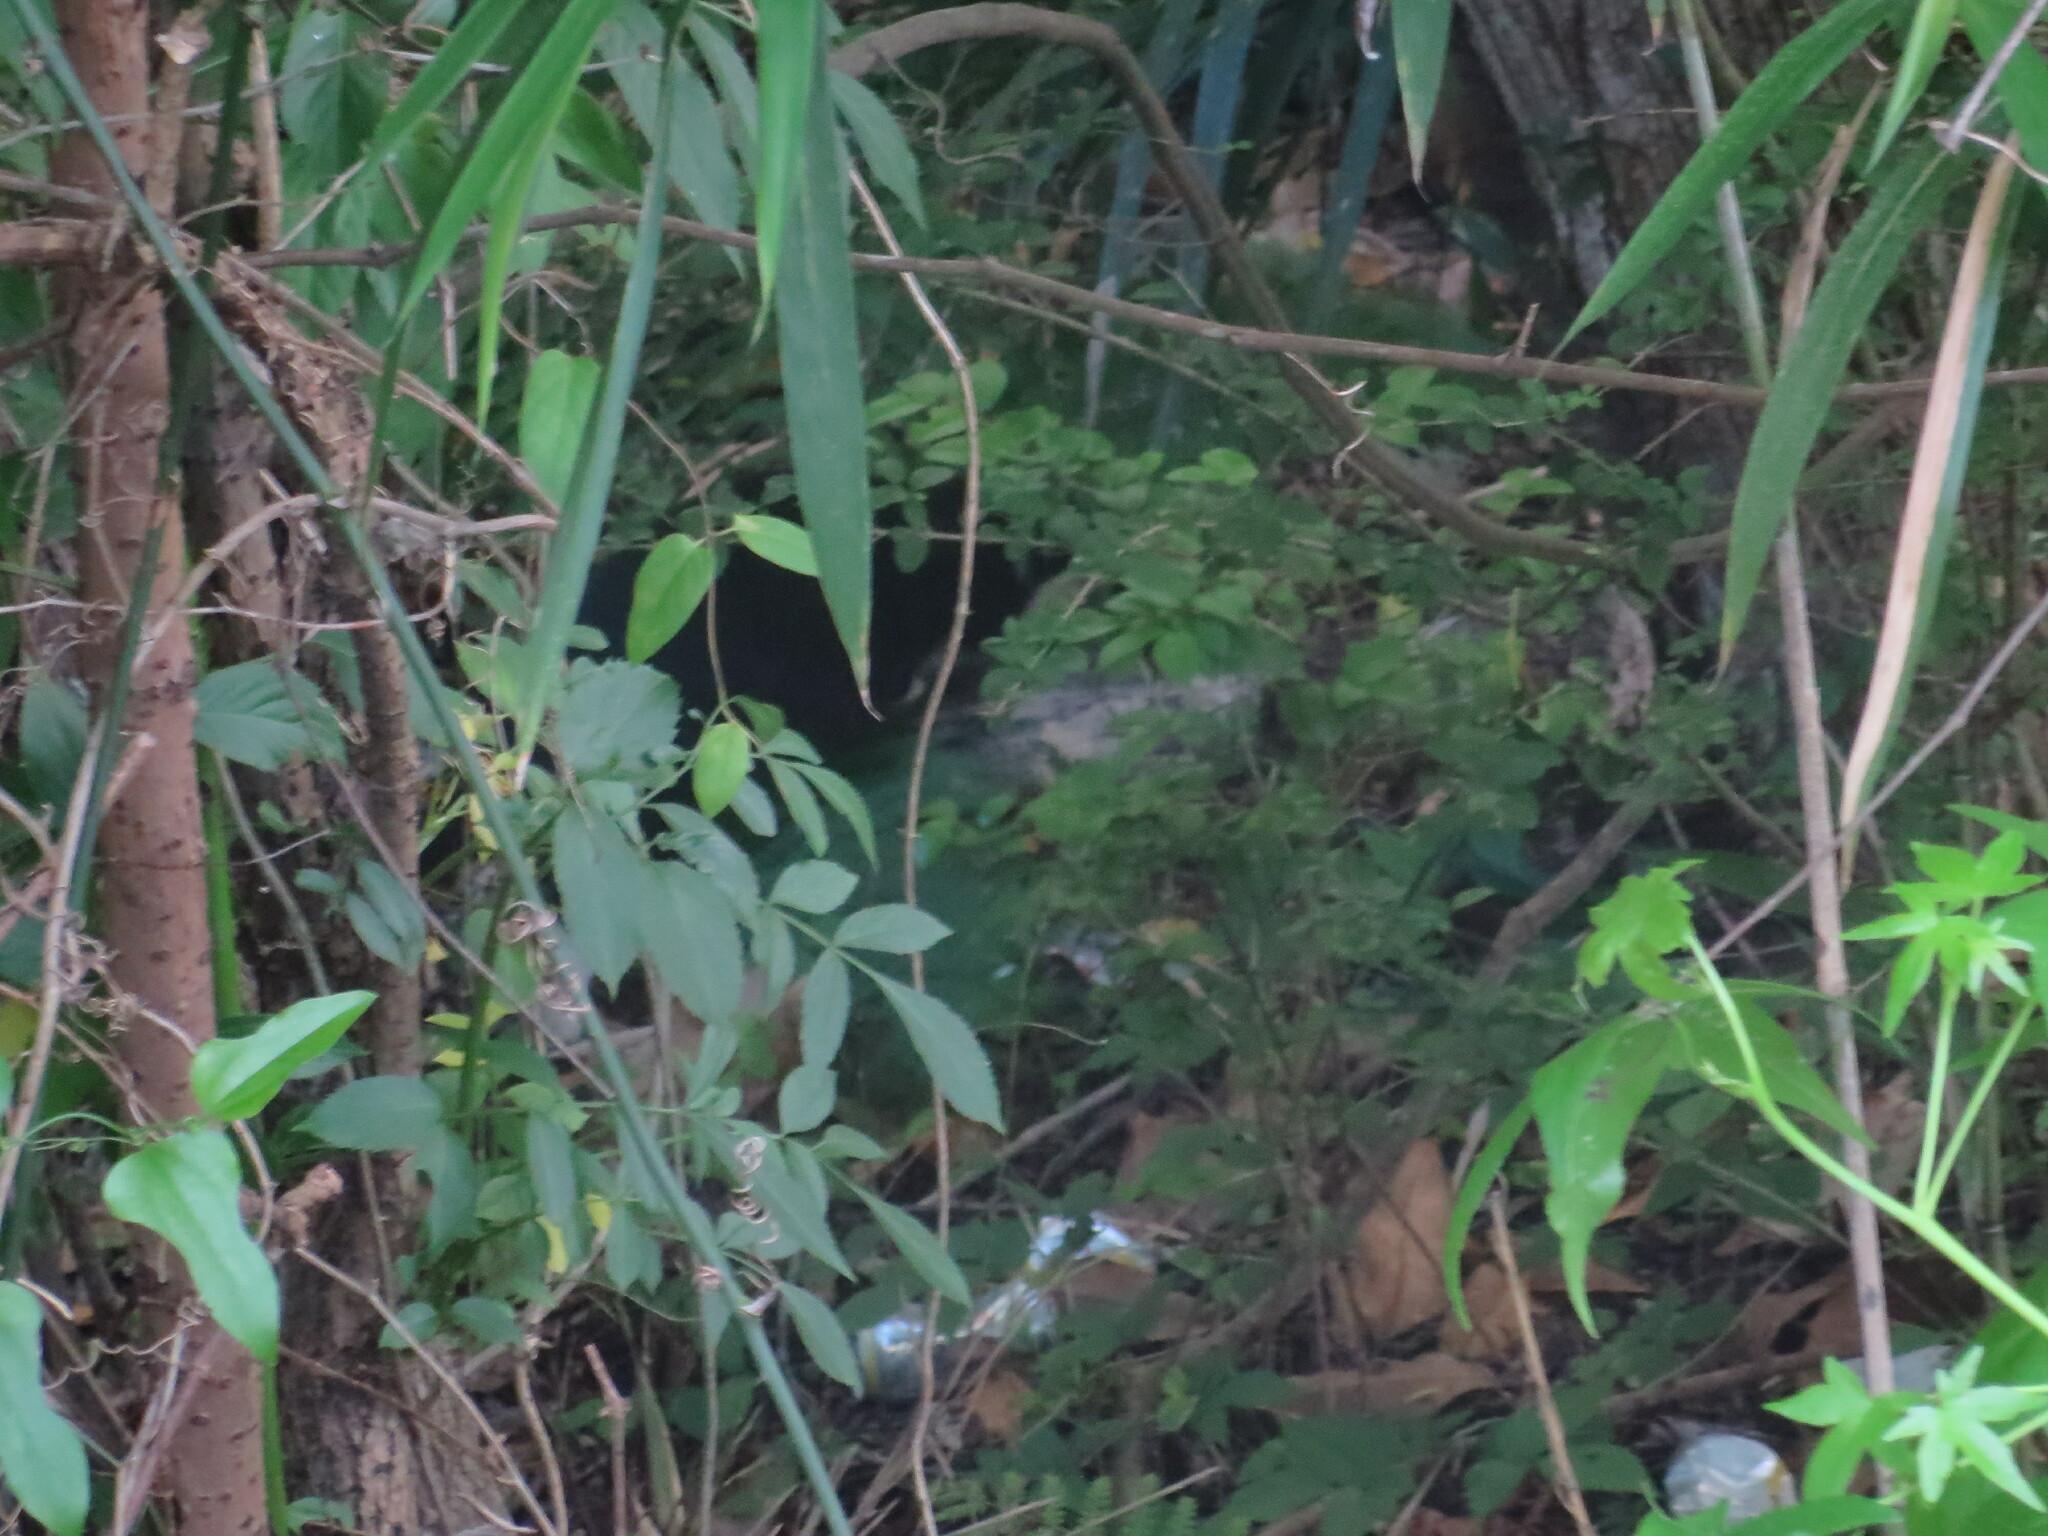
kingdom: Animalia
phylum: Chordata
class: Mammalia
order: Carnivora
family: Felidae
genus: Felis
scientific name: Felis catus
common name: Domestic cat
